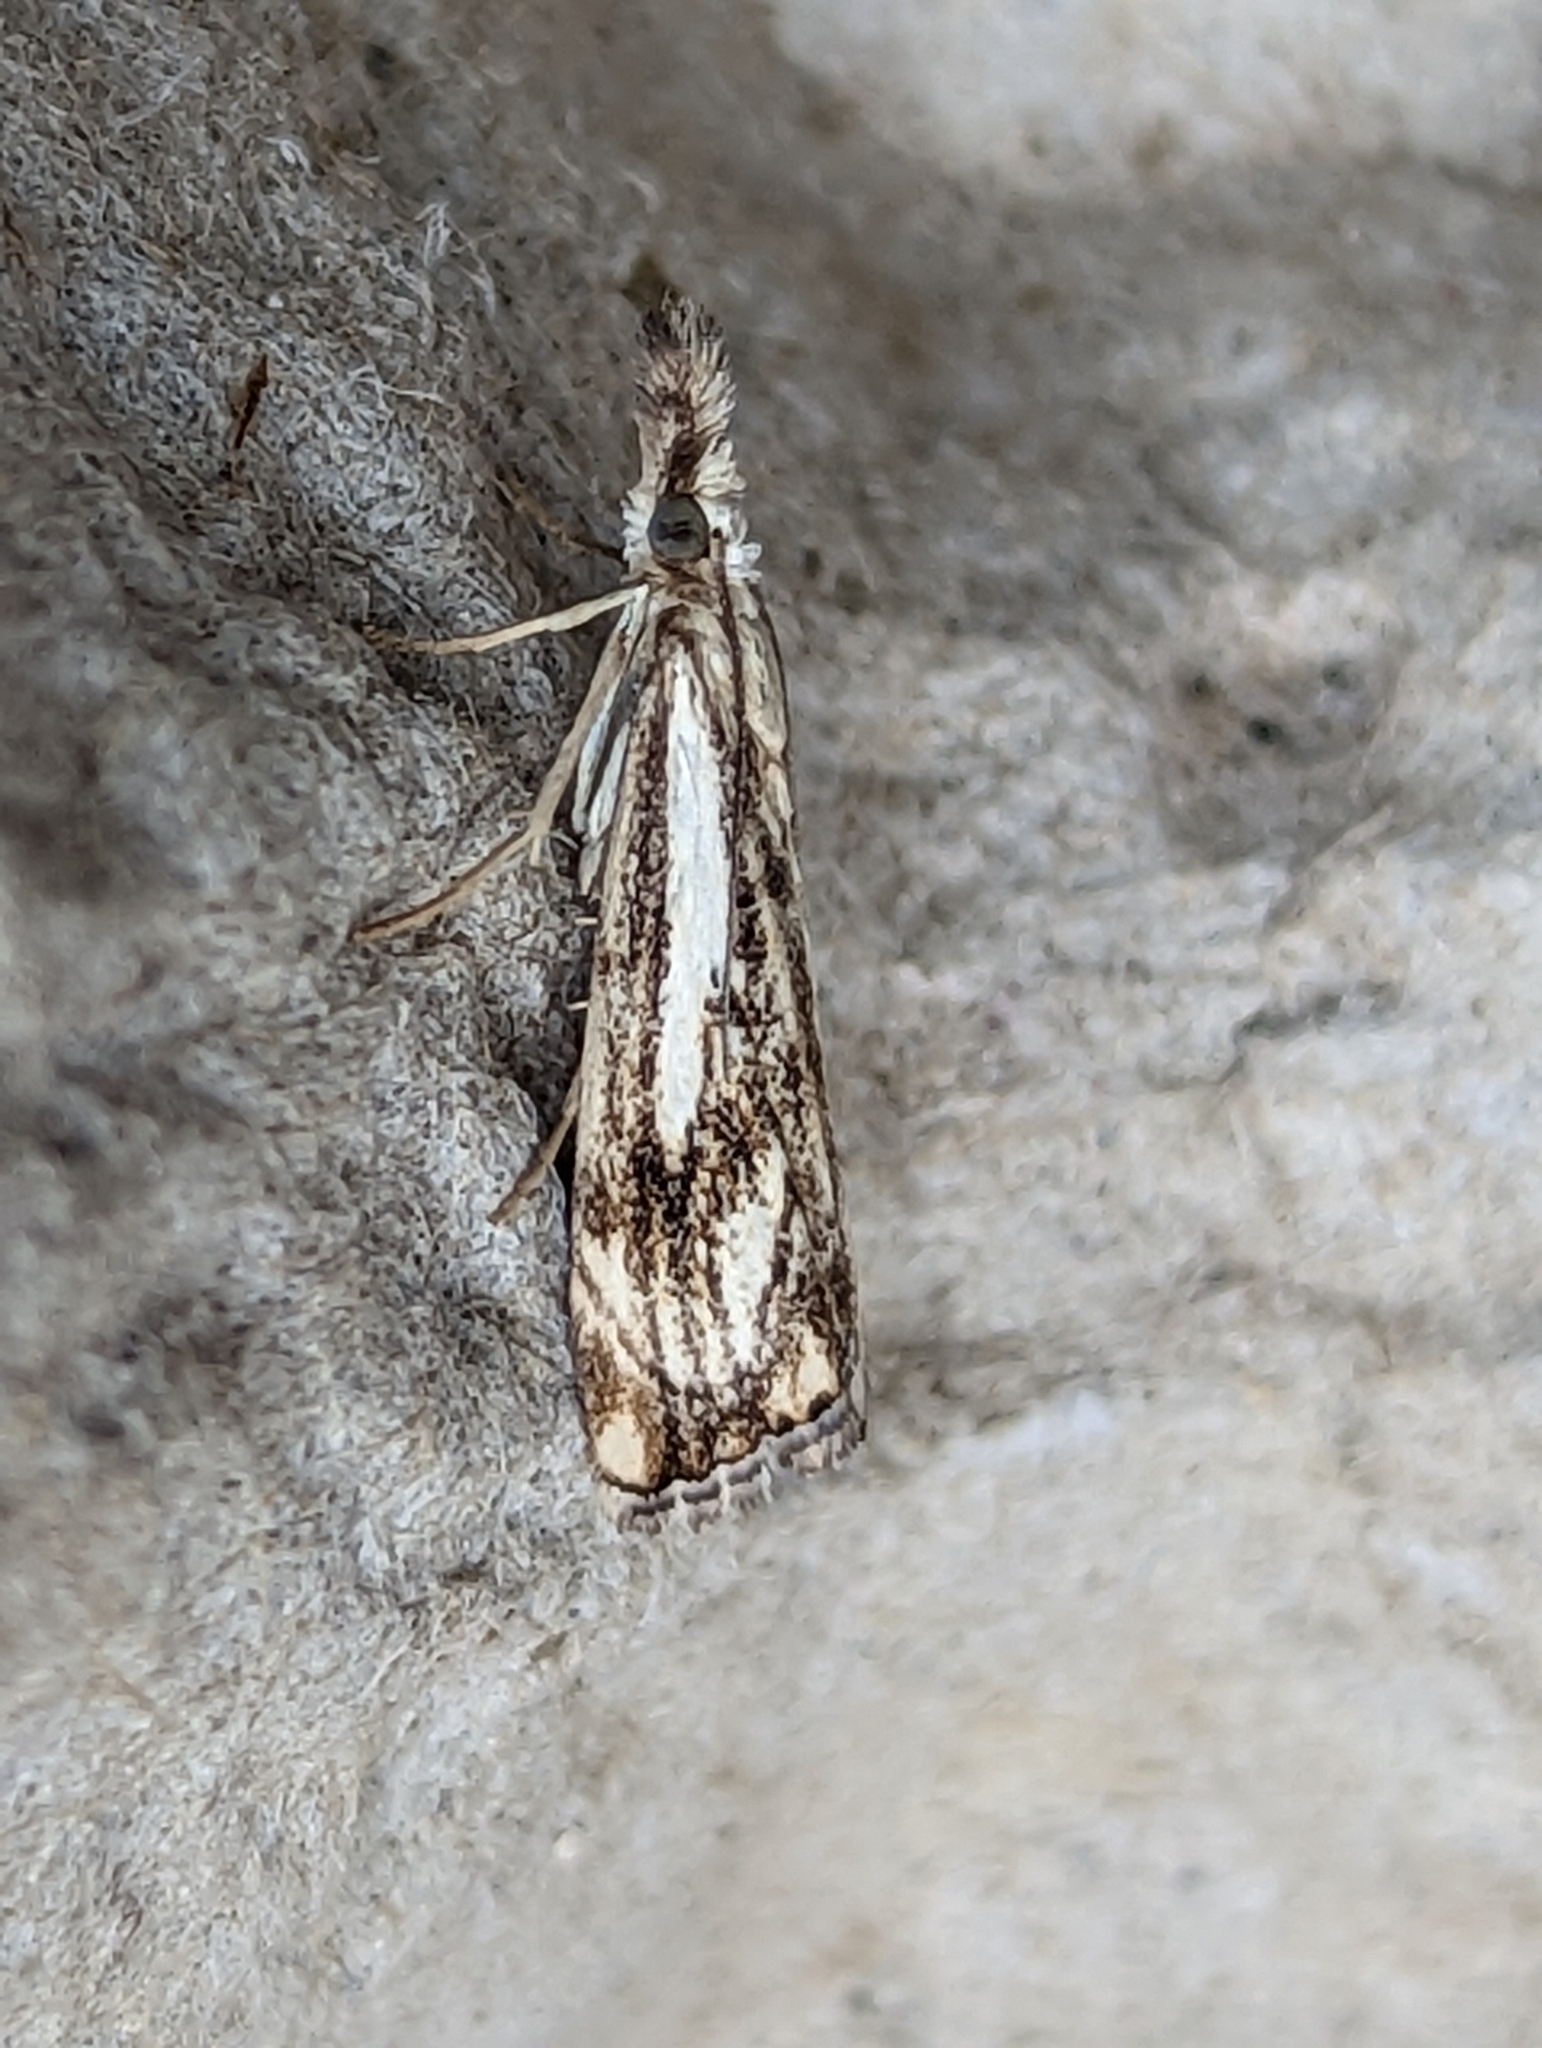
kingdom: Animalia
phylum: Arthropoda
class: Insecta
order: Lepidoptera
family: Crambidae
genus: Catoptria
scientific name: Catoptria falsella
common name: Chequered grass-veneer
